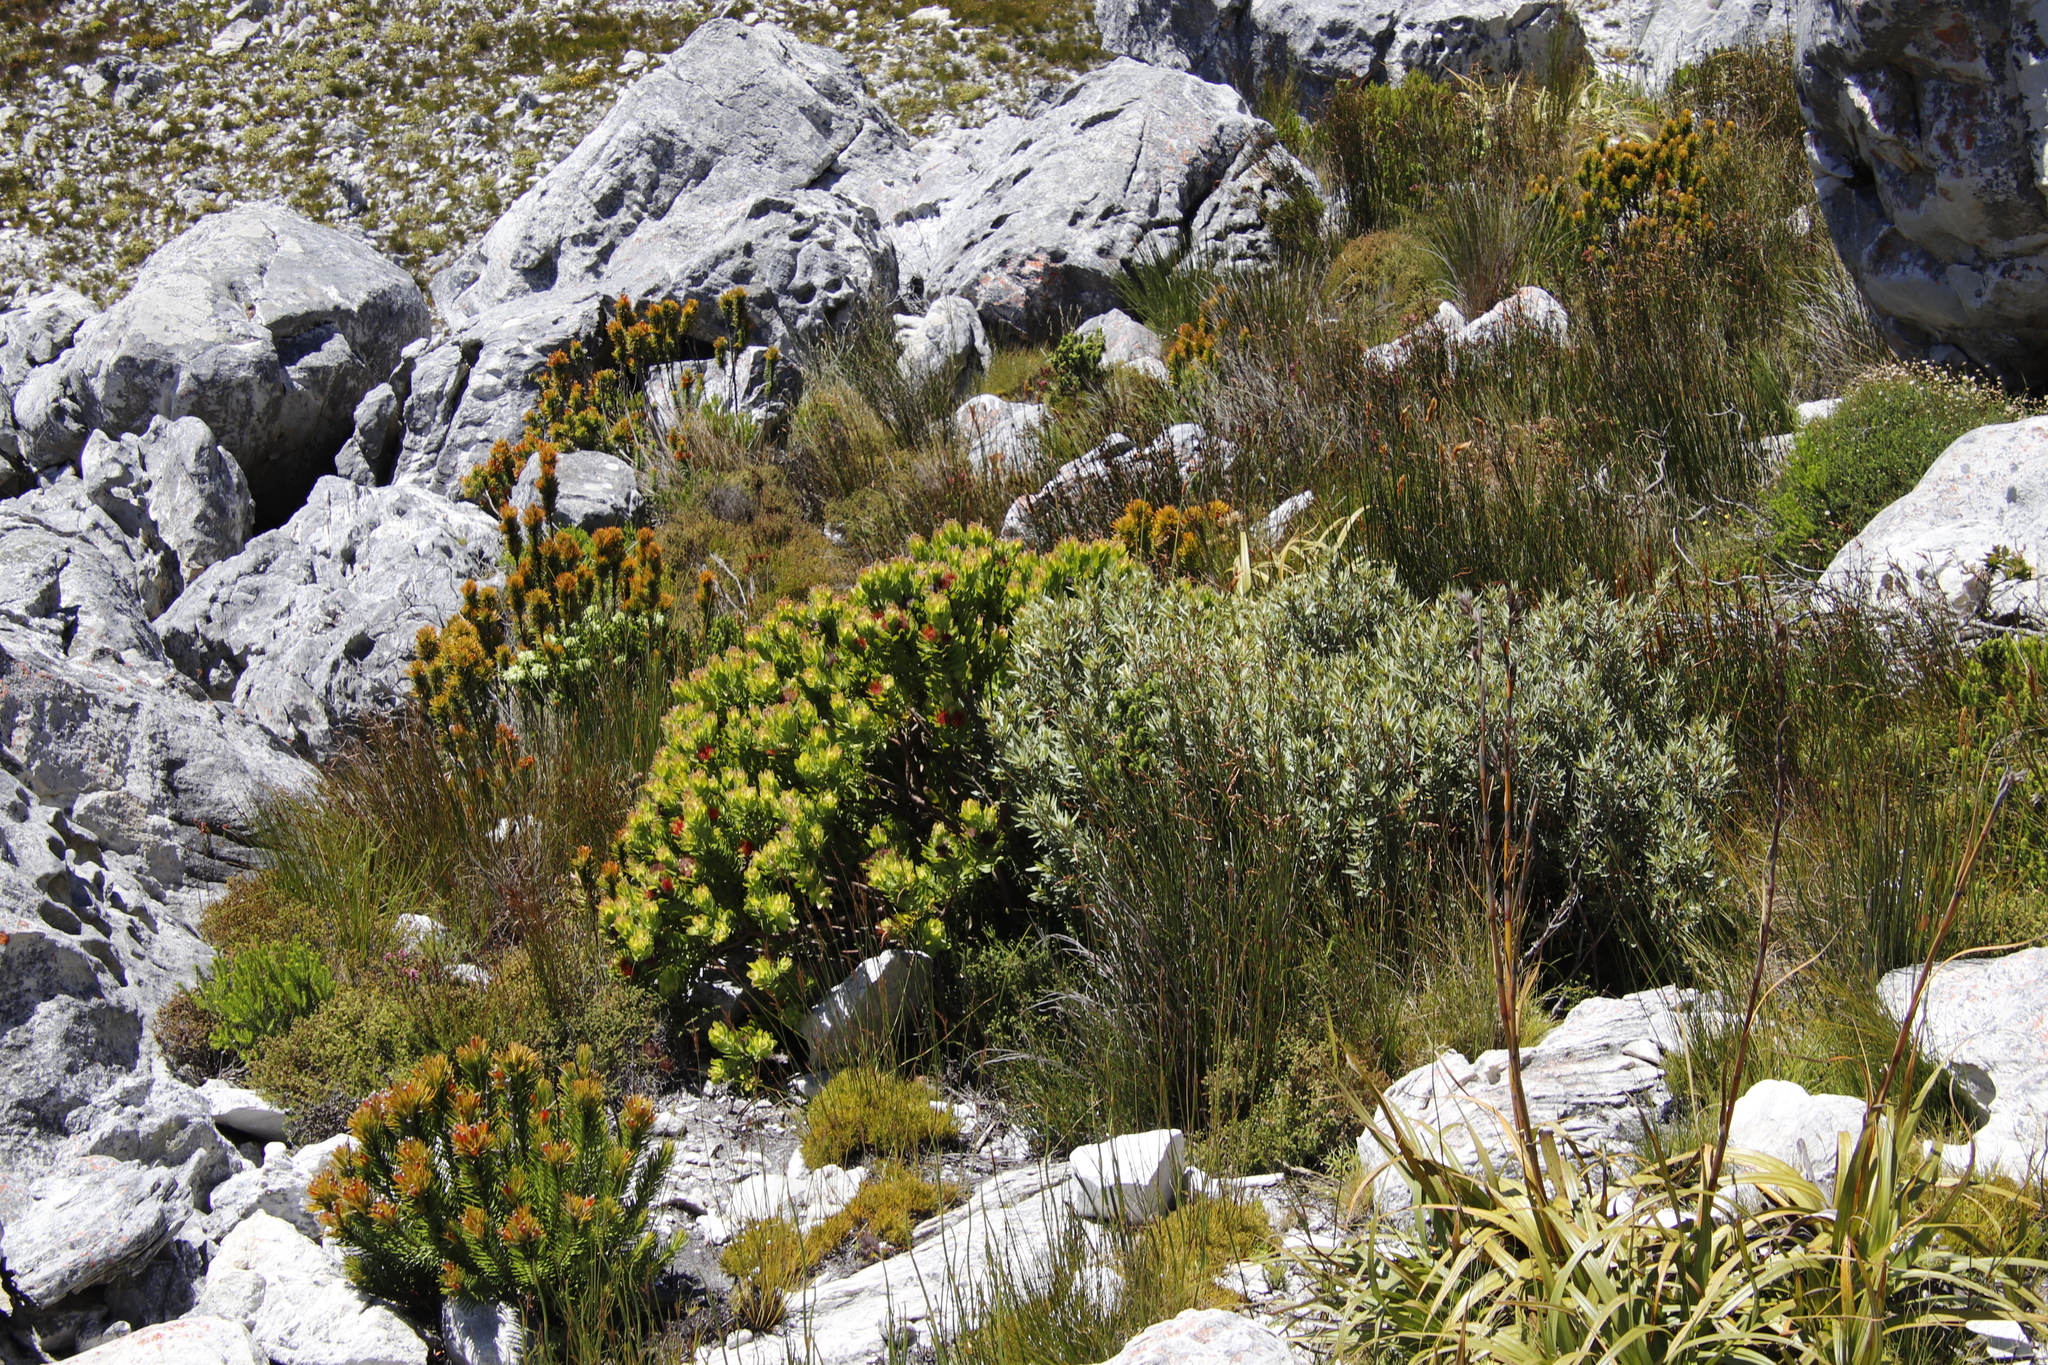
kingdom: Plantae
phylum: Tracheophyta
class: Magnoliopsida
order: Cornales
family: Grubbiaceae
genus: Grubbia
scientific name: Grubbia tomentosa
